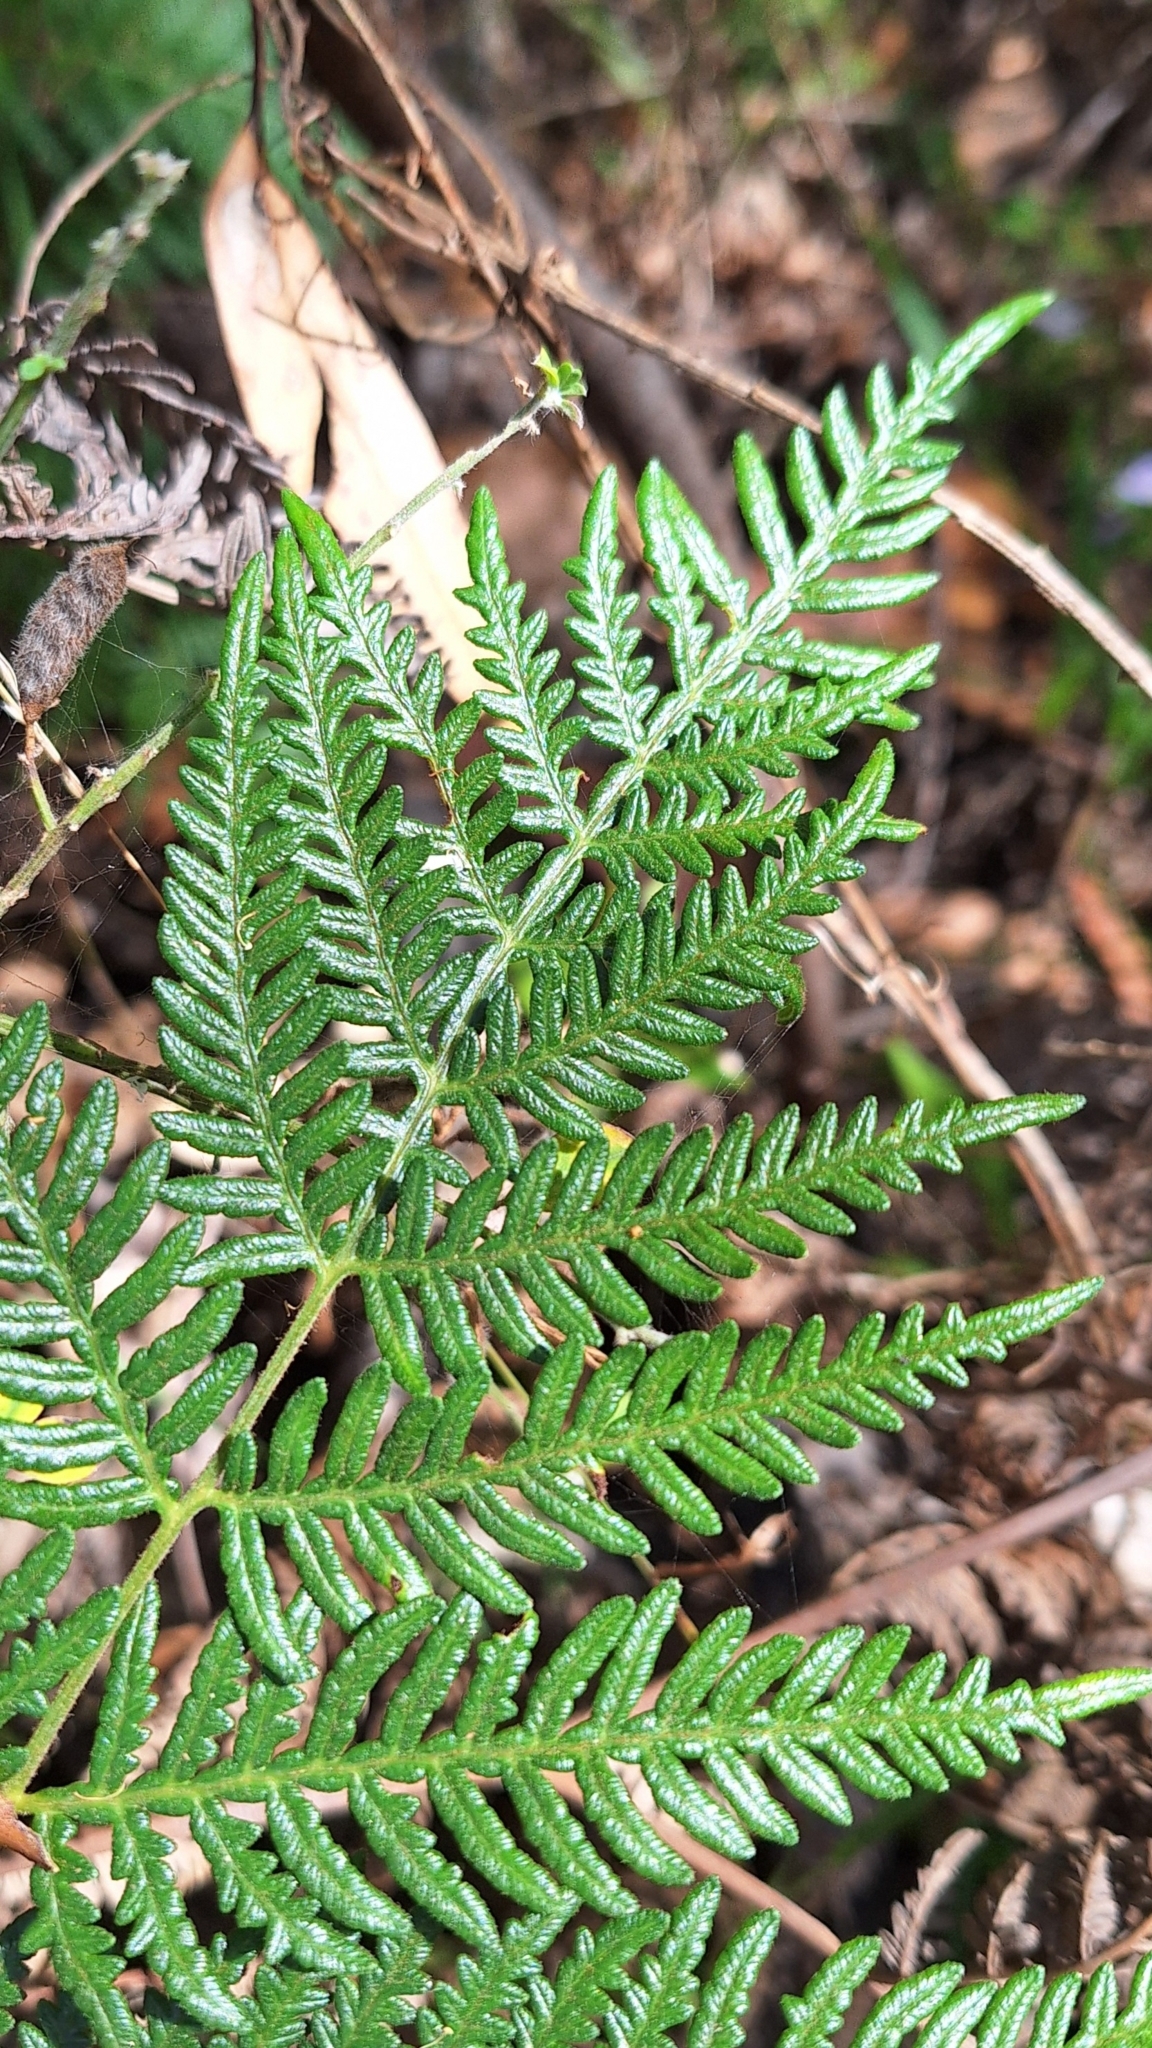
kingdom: Plantae
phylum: Tracheophyta
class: Polypodiopsida
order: Polypodiales
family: Dennstaedtiaceae
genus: Pteridium
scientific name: Pteridium esculentum
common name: Bracken fern
